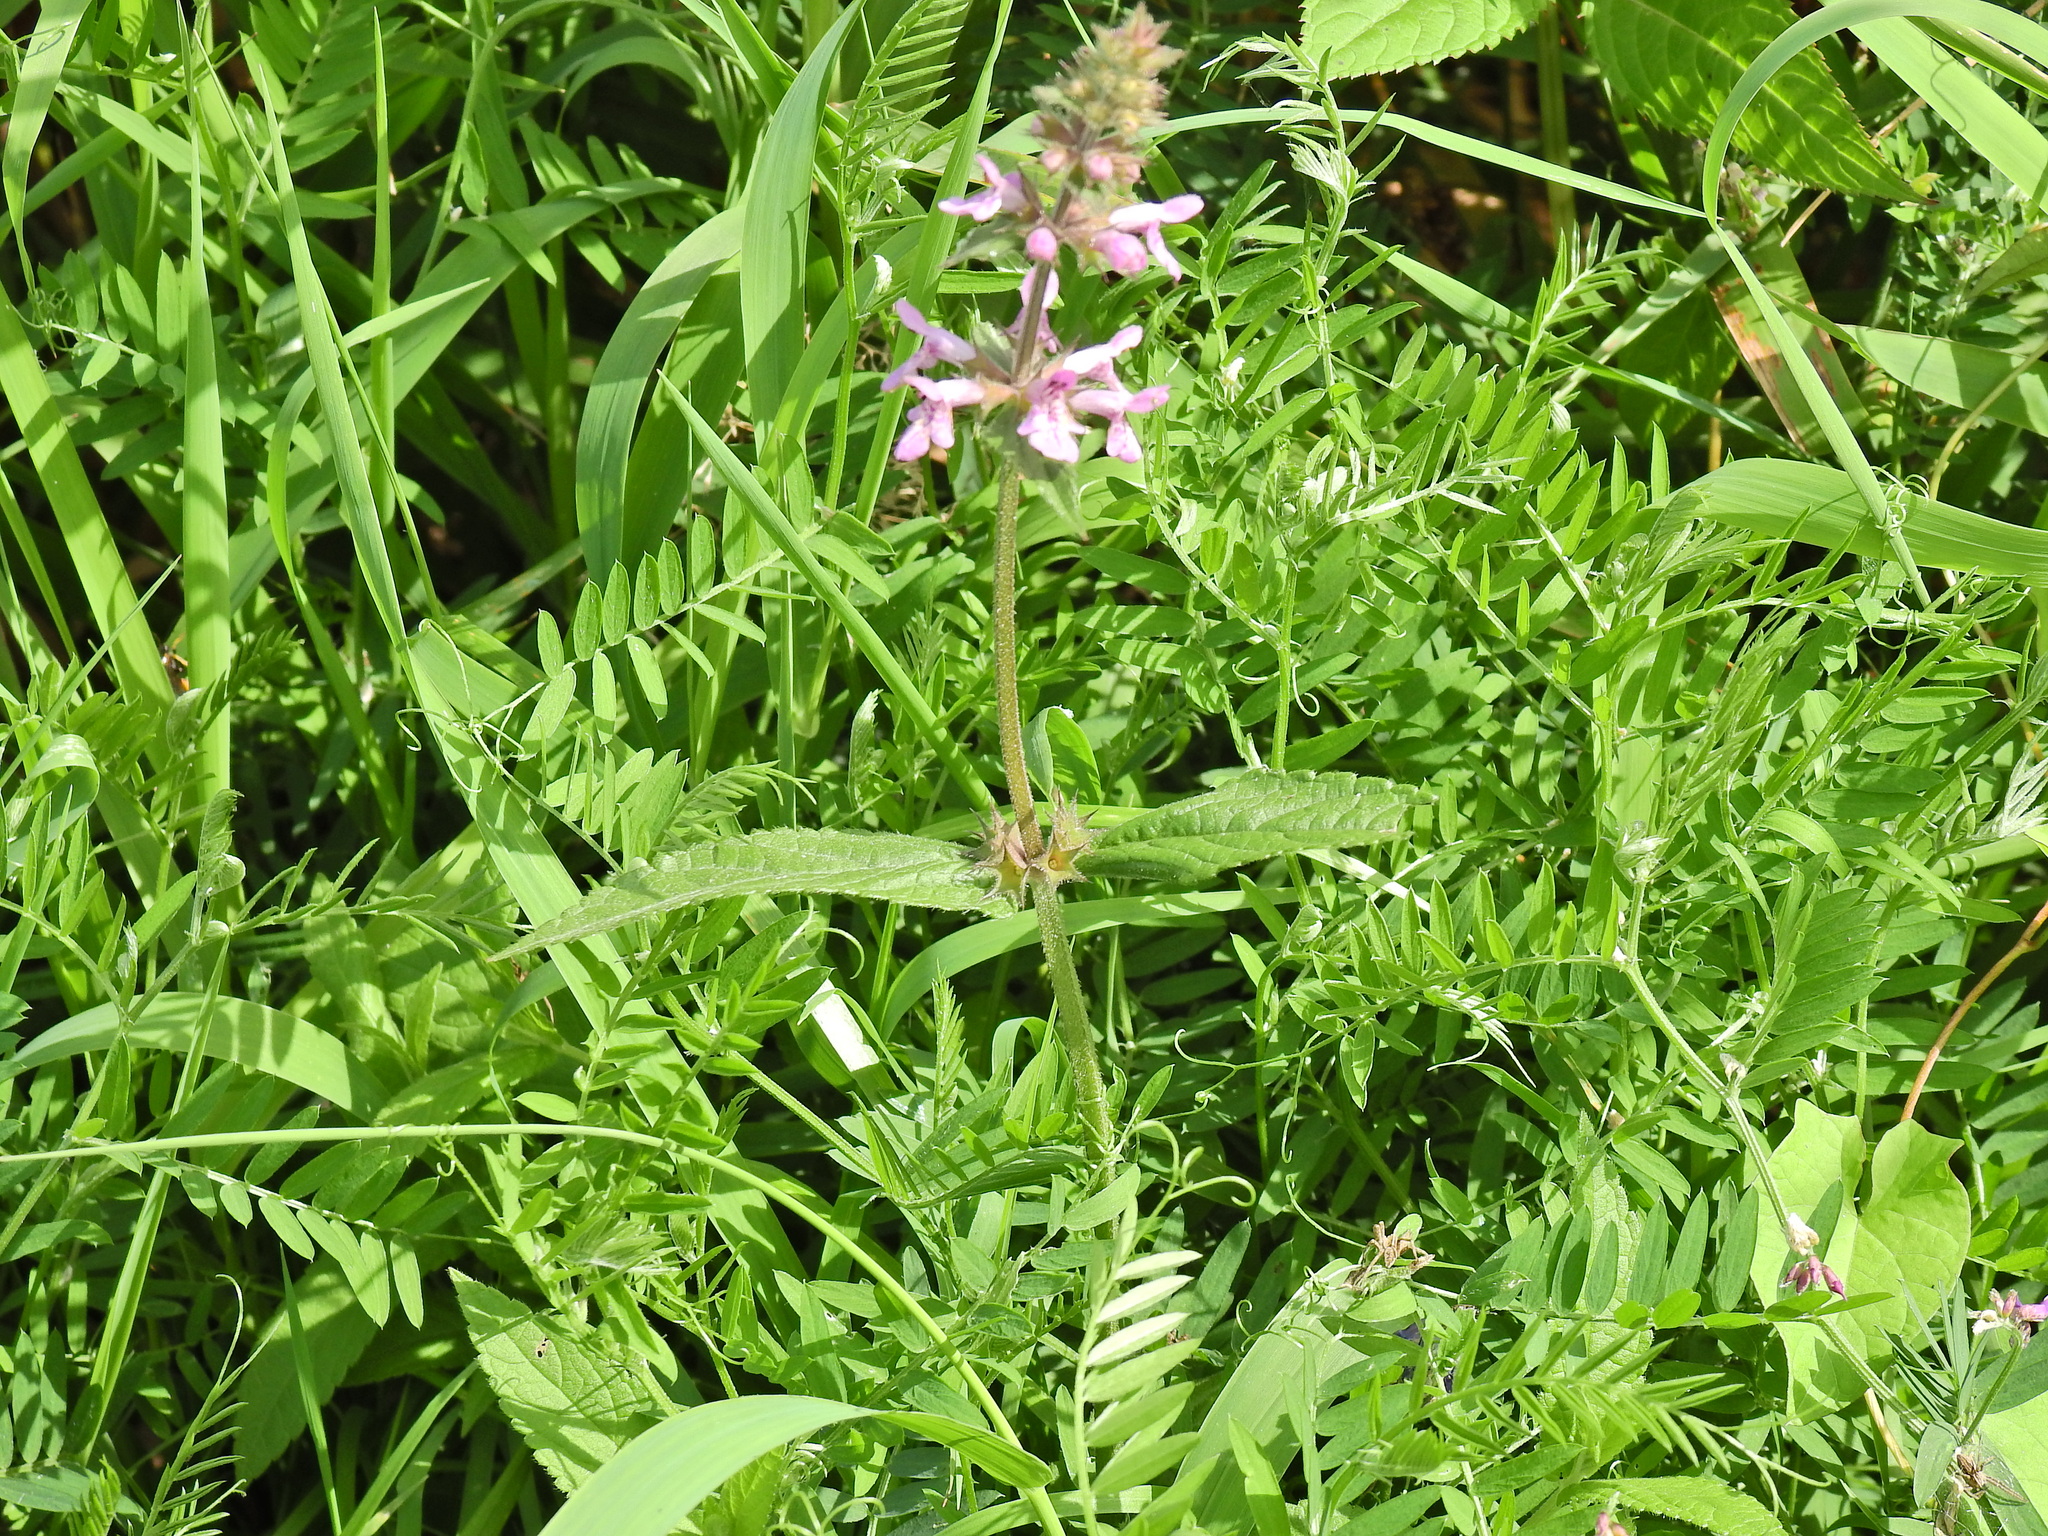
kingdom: Plantae
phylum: Tracheophyta
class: Magnoliopsida
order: Lamiales
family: Lamiaceae
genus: Stachys
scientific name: Stachys palustris
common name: Marsh woundwort
